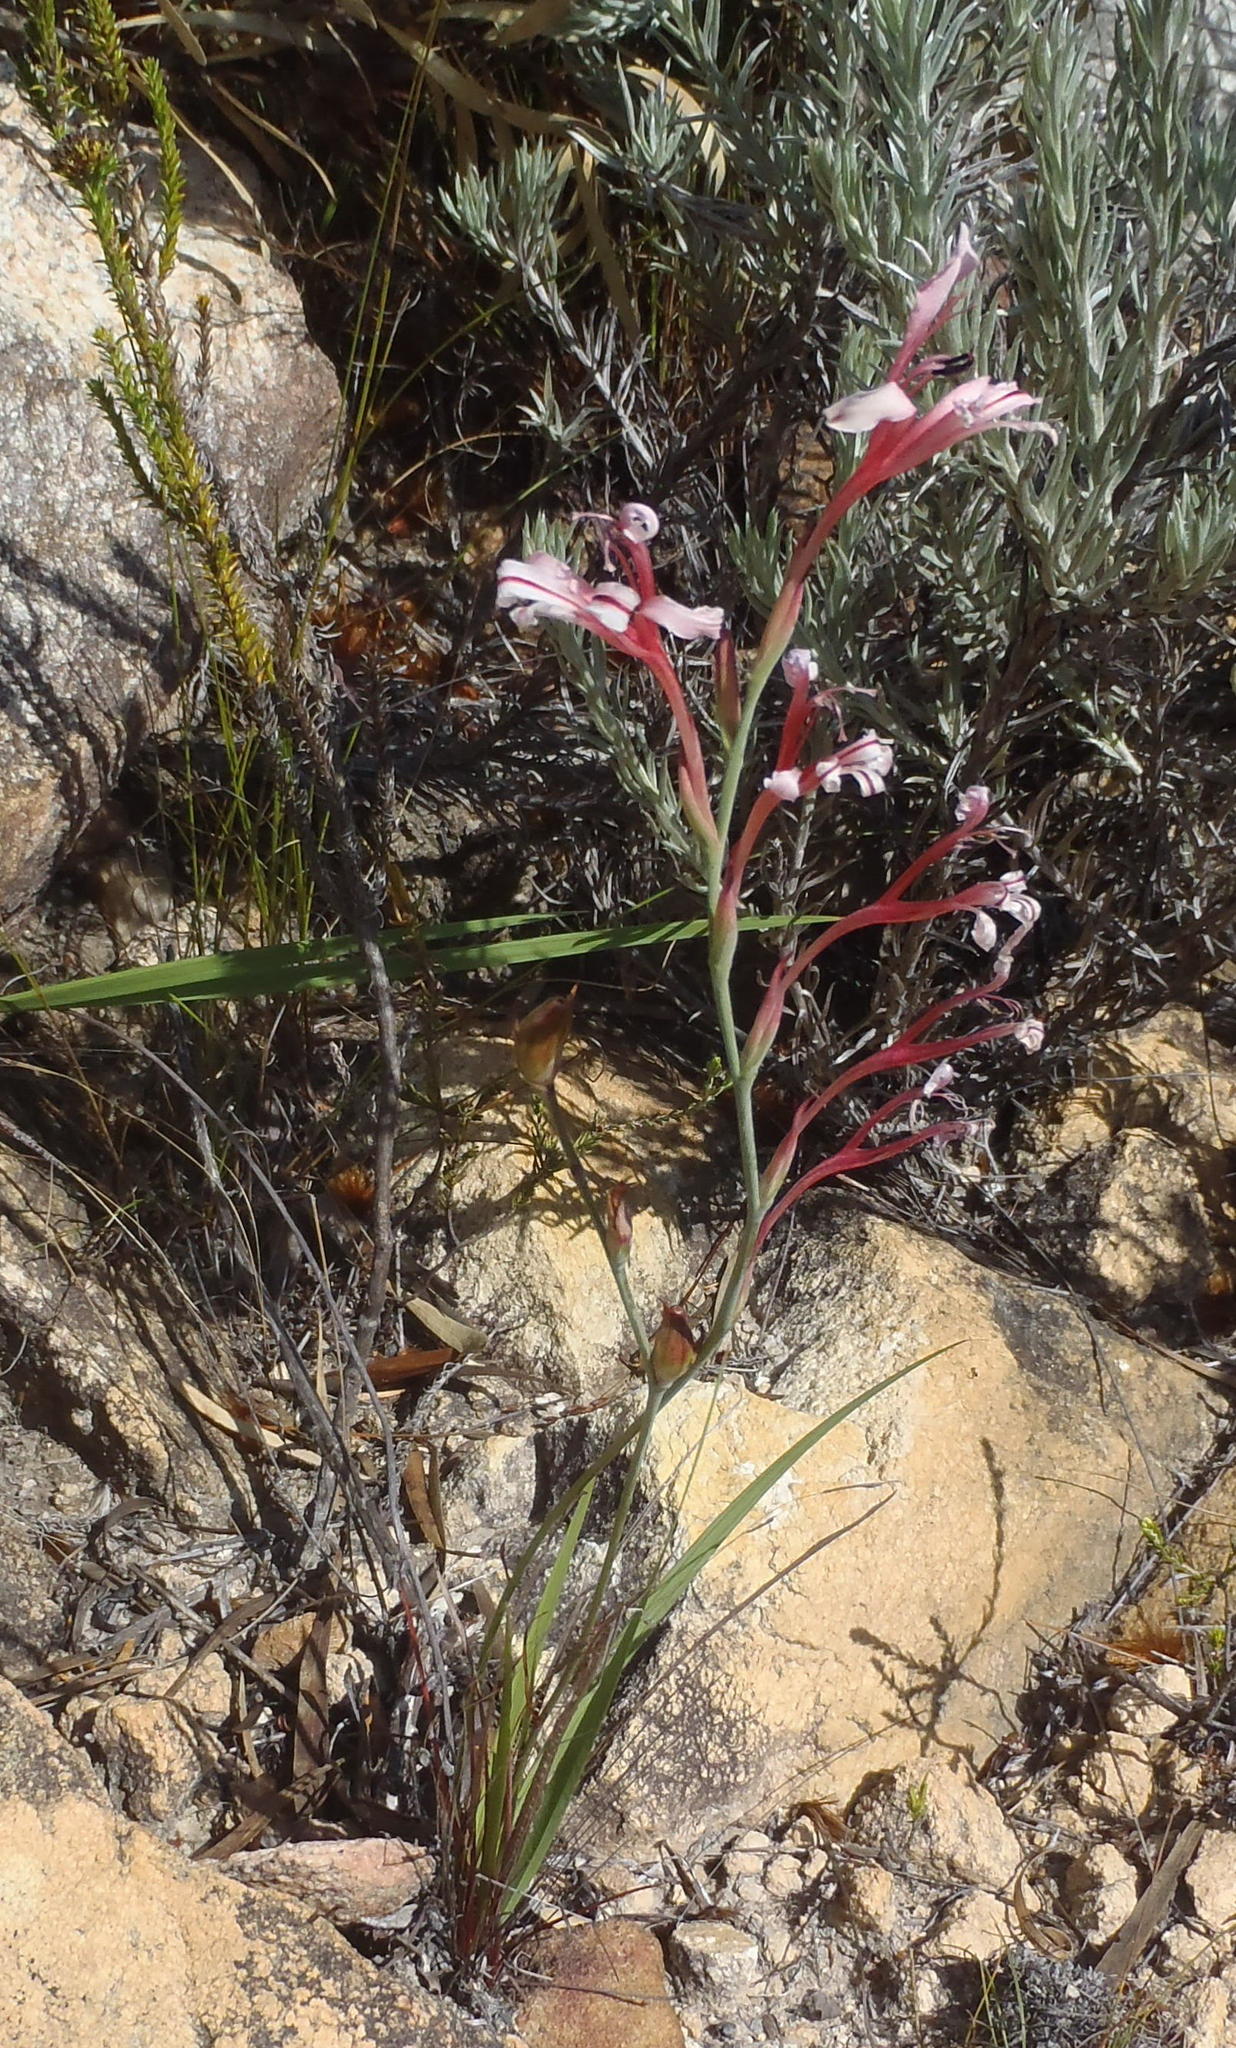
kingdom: Plantae
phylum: Tracheophyta
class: Liliopsida
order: Asparagales
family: Iridaceae
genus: Tritoniopsis
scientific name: Tritoniopsis ramosa
